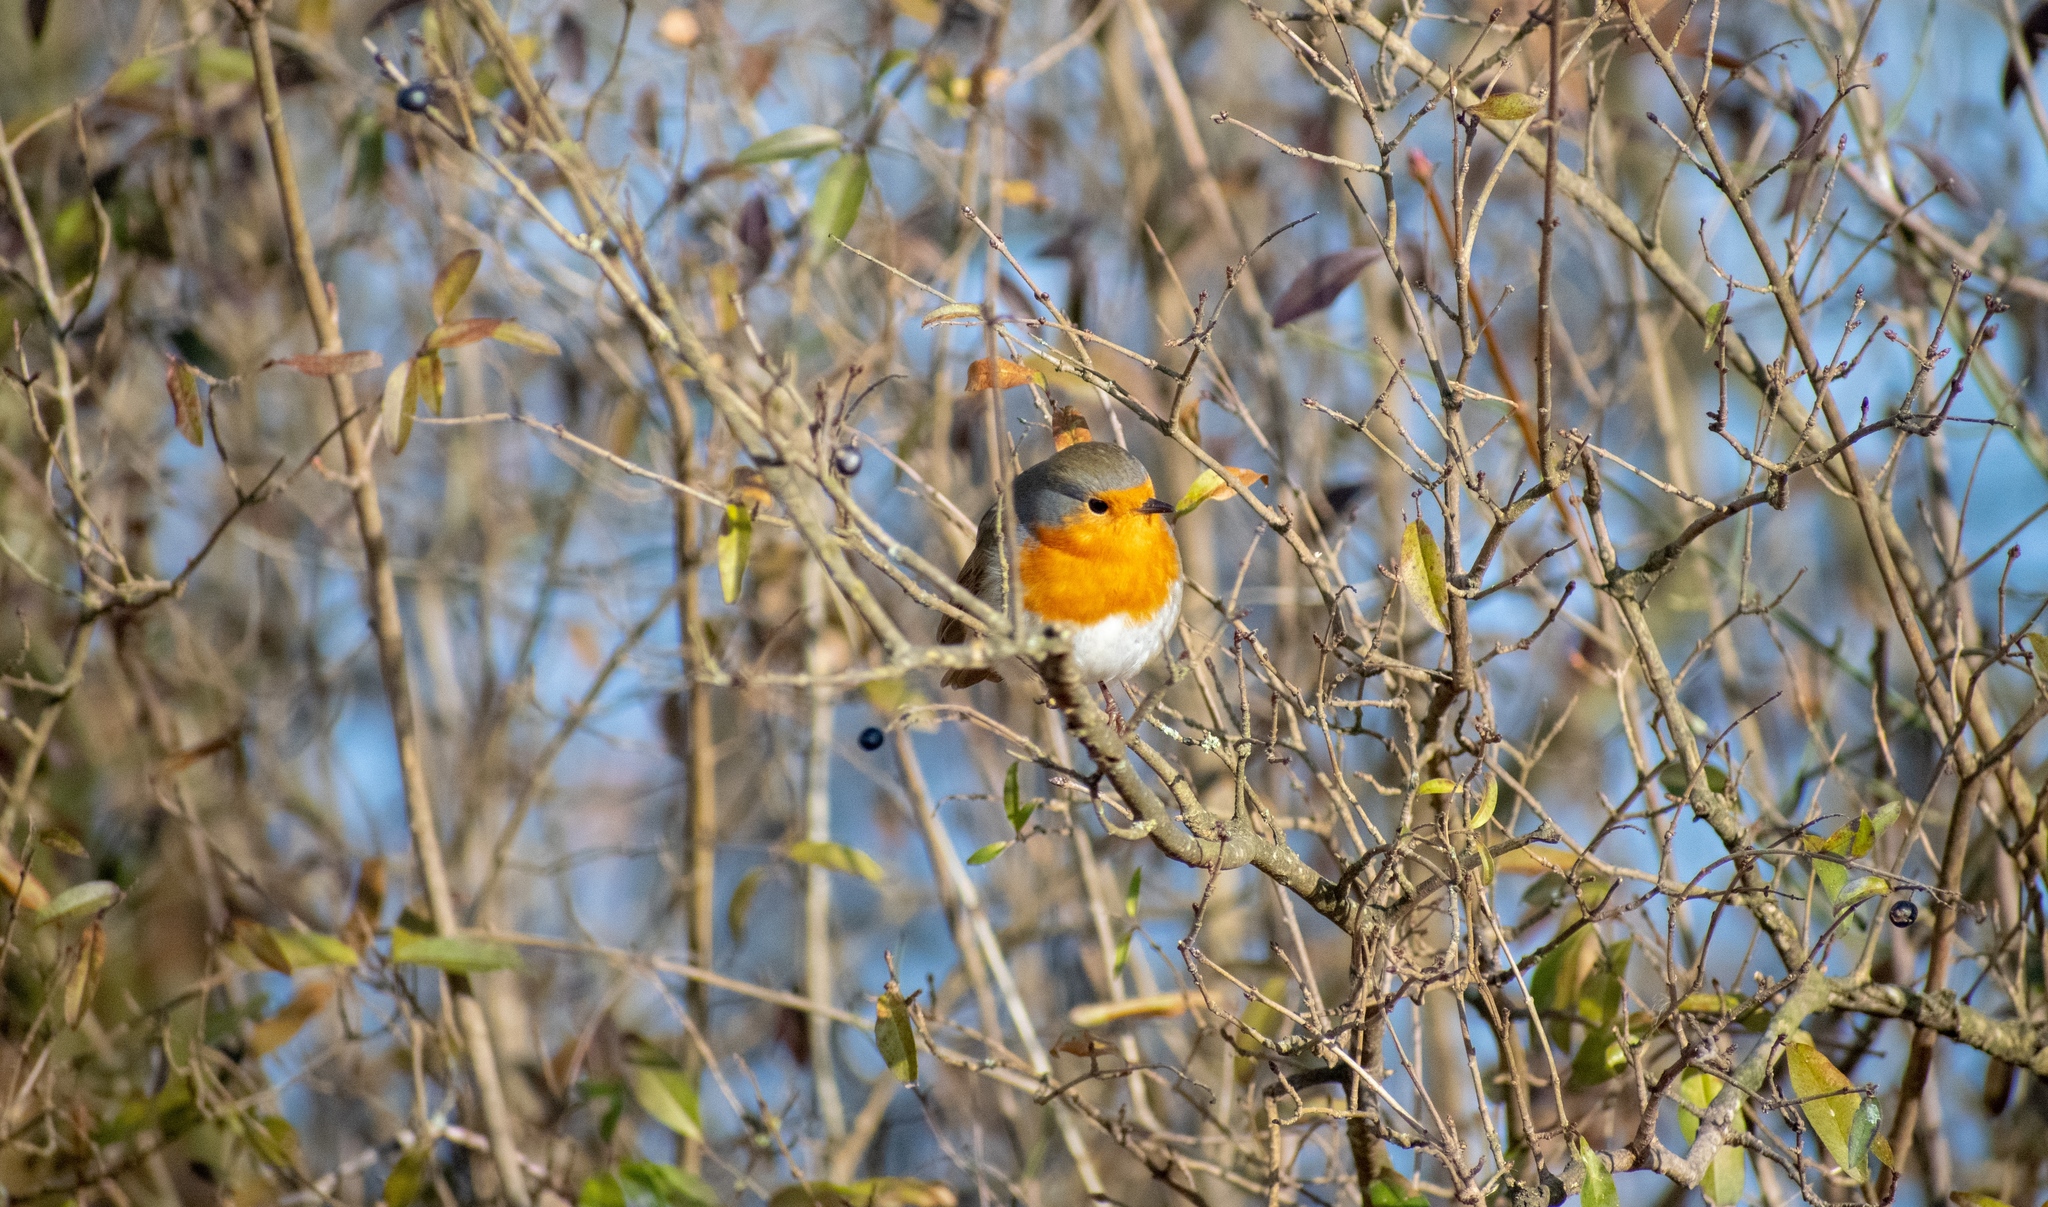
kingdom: Animalia
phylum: Chordata
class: Aves
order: Passeriformes
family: Muscicapidae
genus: Erithacus
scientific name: Erithacus rubecula
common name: European robin
